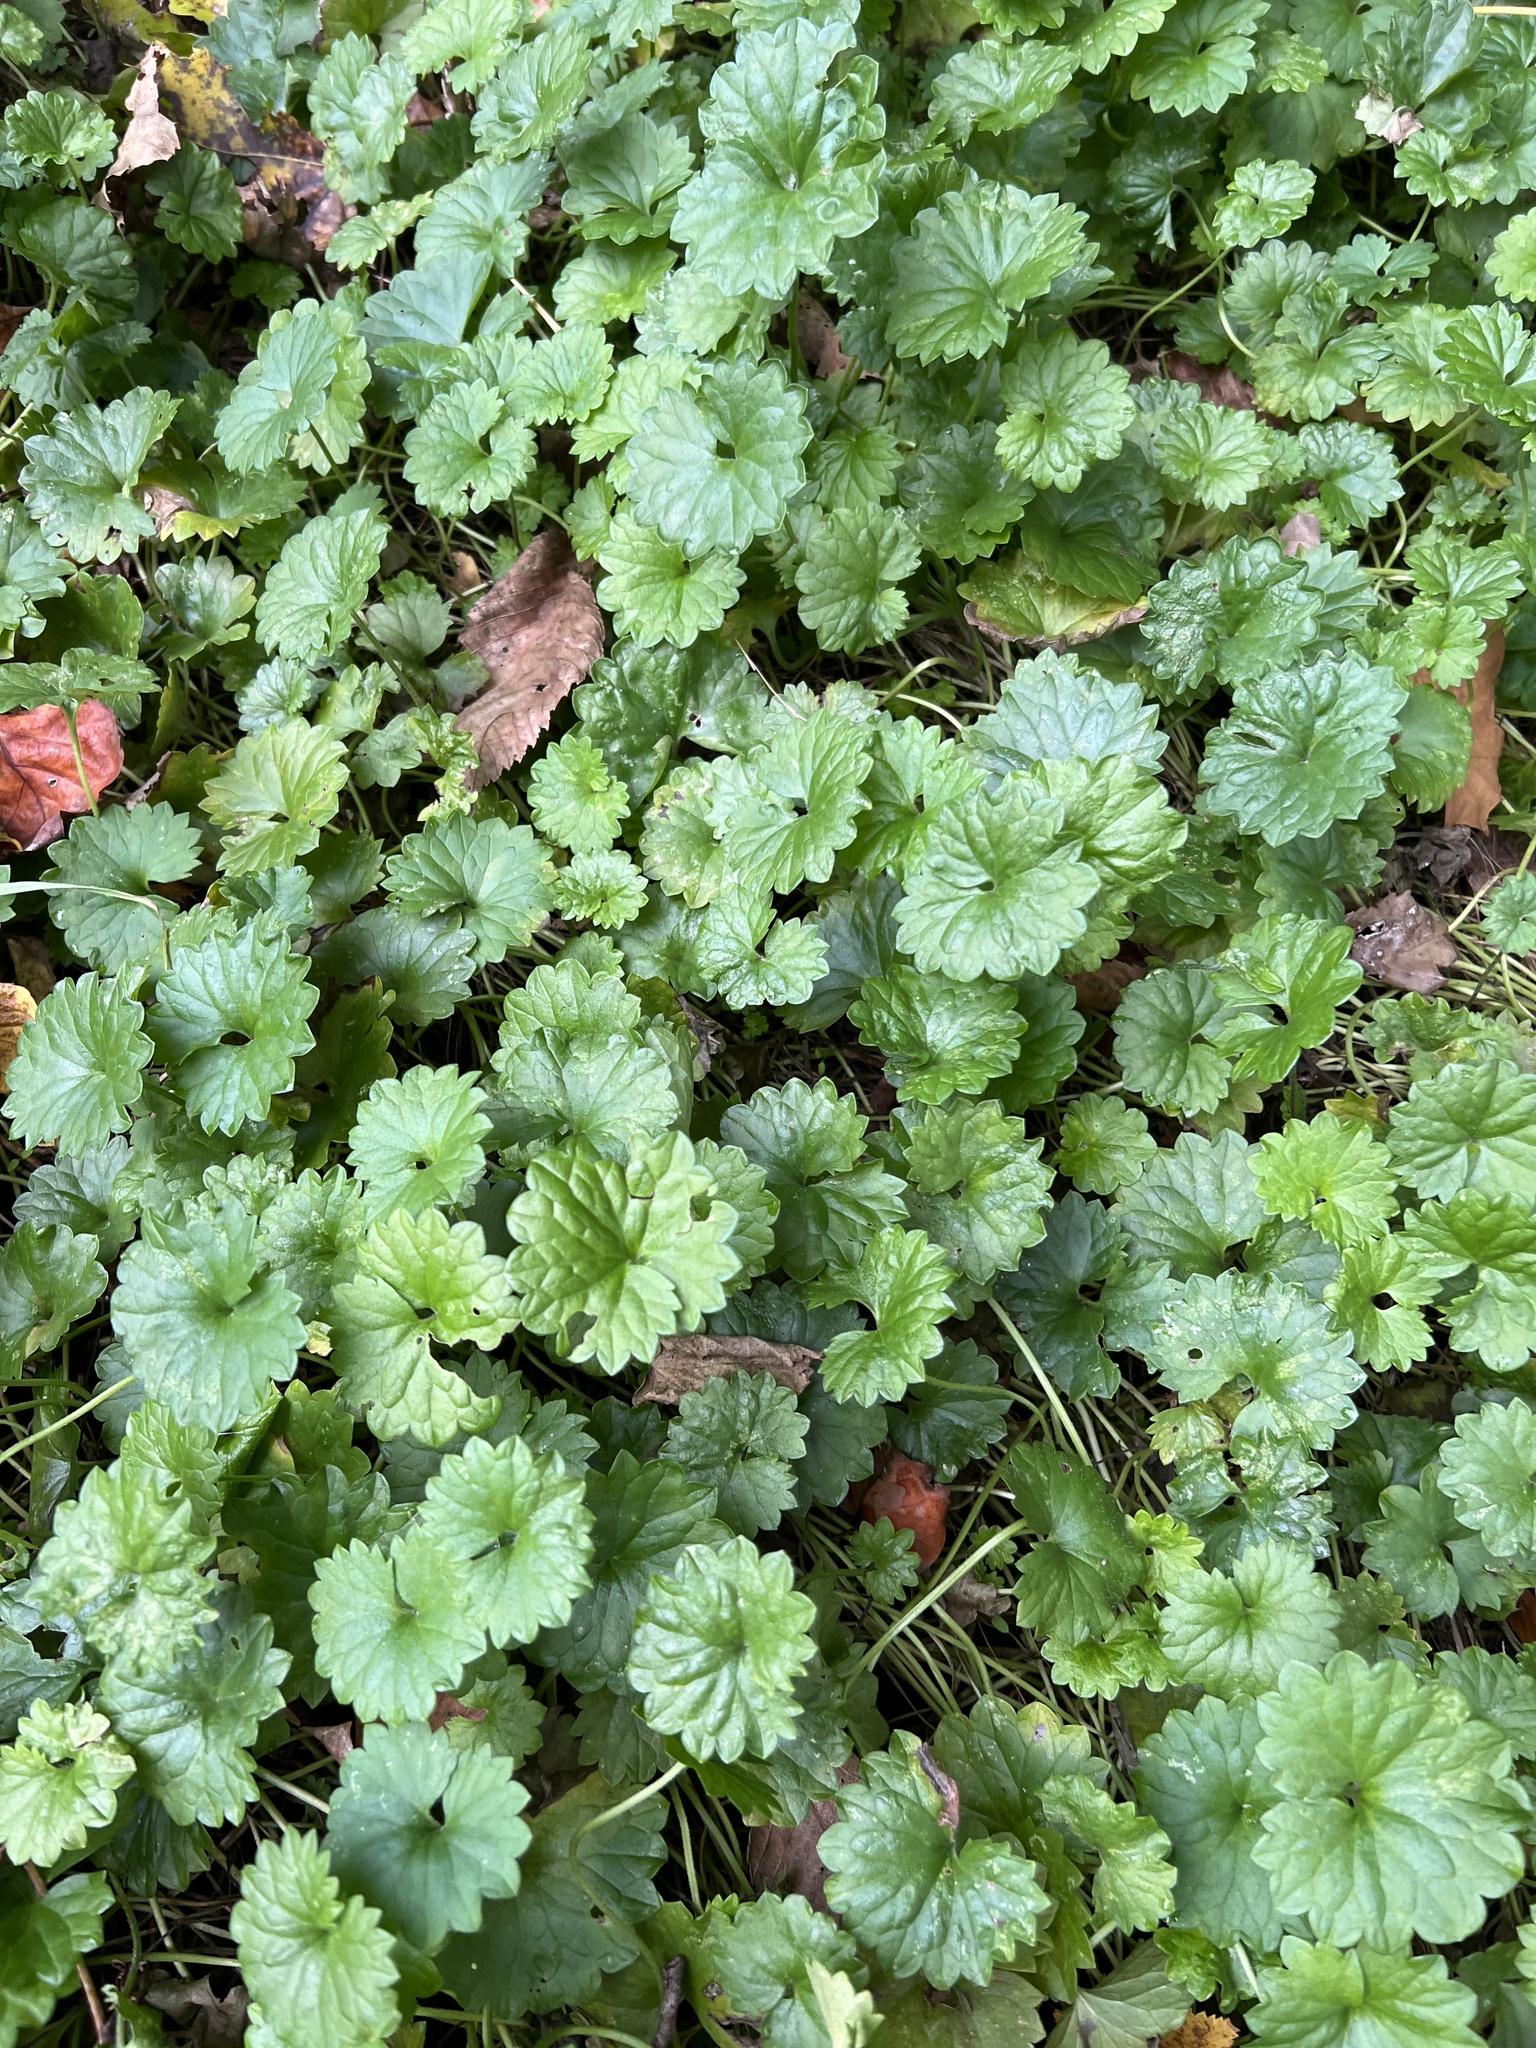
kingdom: Plantae
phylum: Tracheophyta
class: Magnoliopsida
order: Lamiales
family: Lamiaceae
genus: Glechoma
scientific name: Glechoma hederacea
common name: Ground ivy
